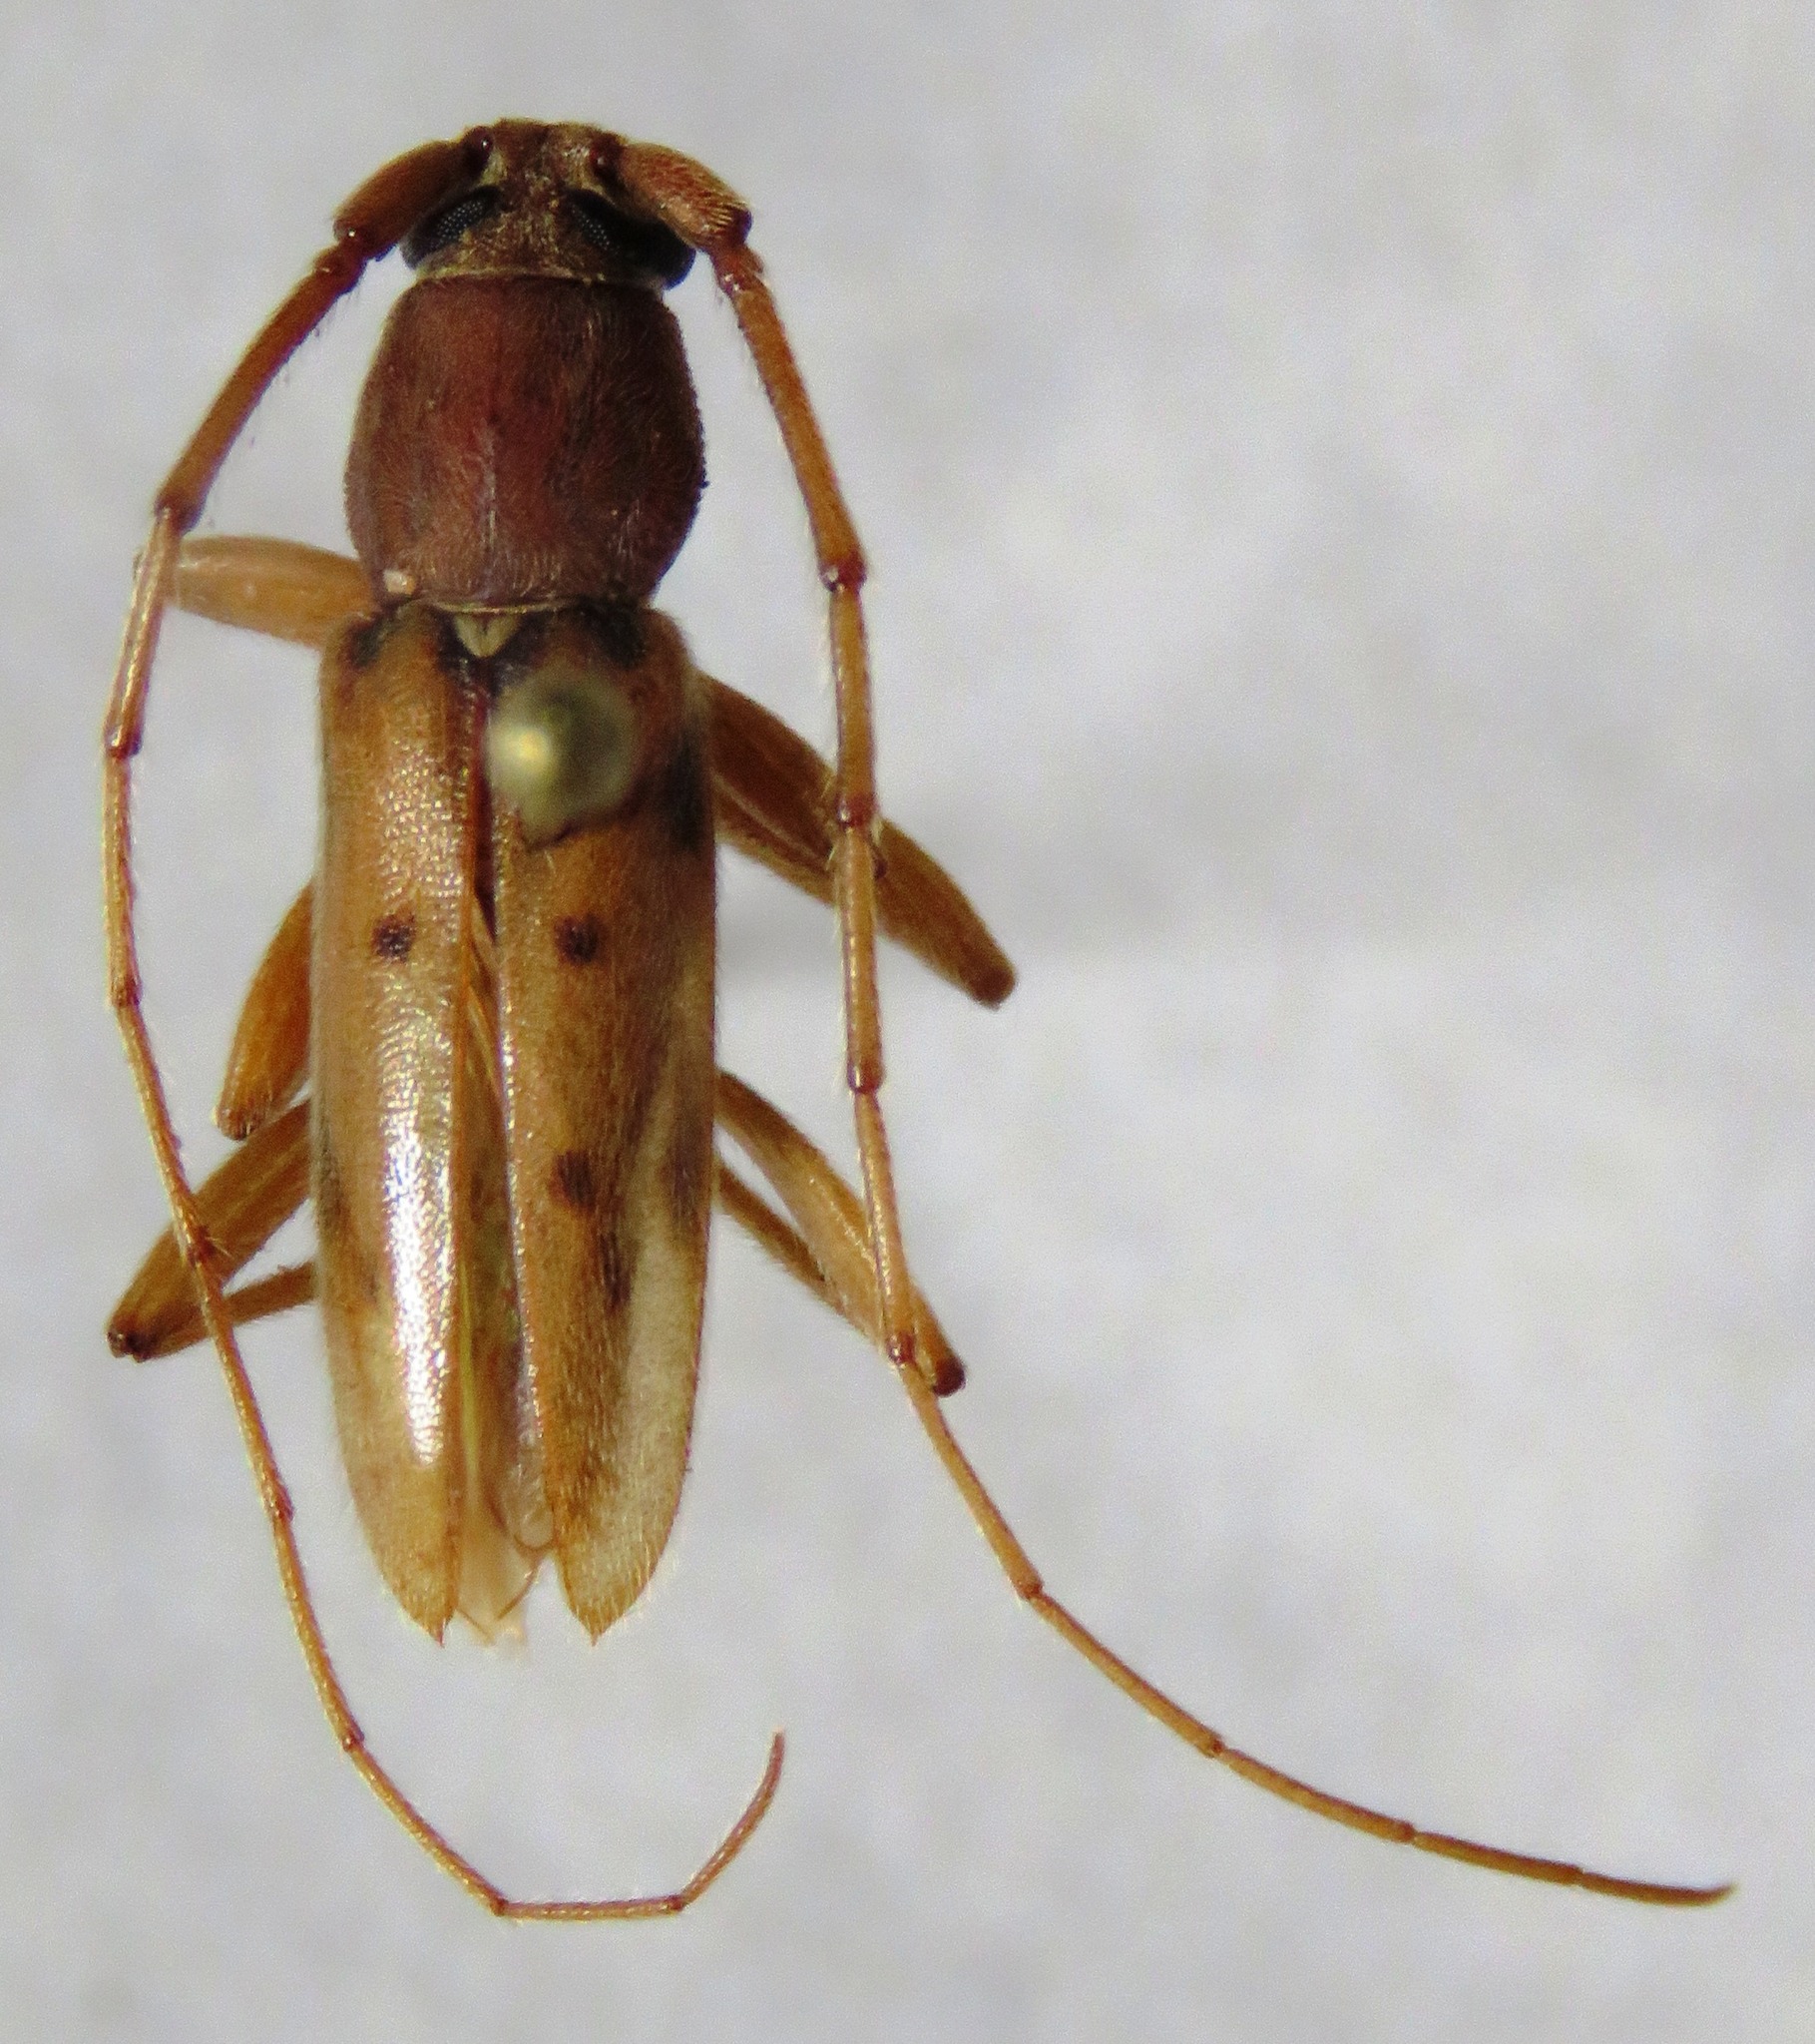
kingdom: Animalia
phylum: Arthropoda
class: Insecta
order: Coleoptera
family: Cerambycidae
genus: Achryson
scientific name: Achryson surinamum
